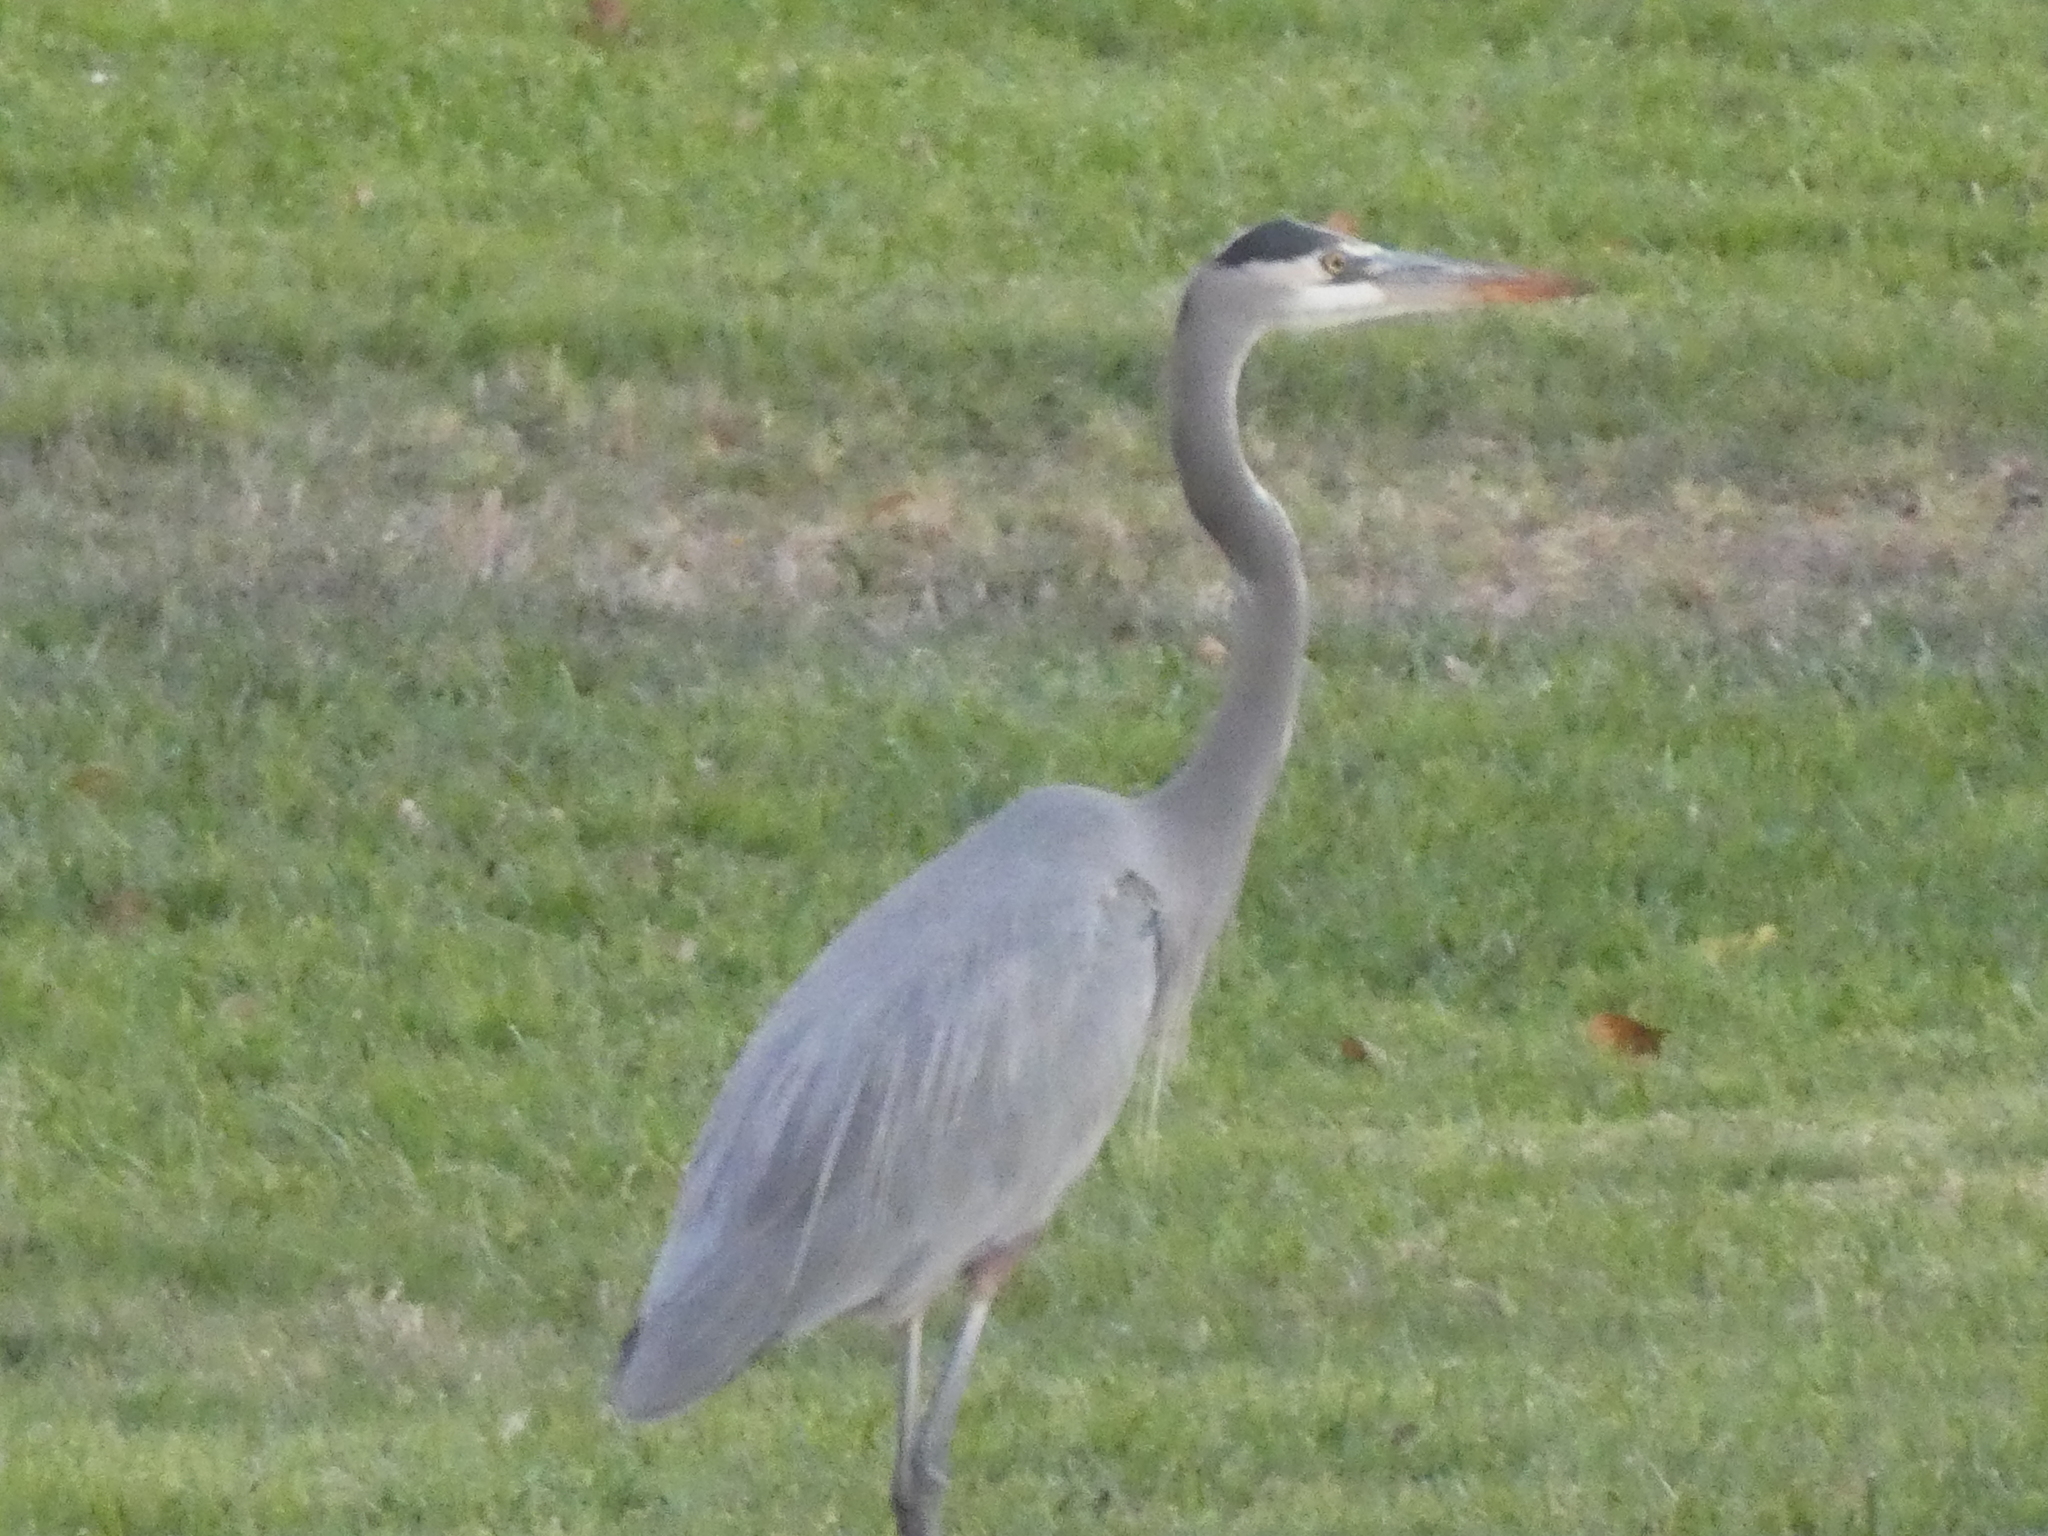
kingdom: Animalia
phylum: Chordata
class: Aves
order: Pelecaniformes
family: Ardeidae
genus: Ardea
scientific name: Ardea herodias
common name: Great blue heron
